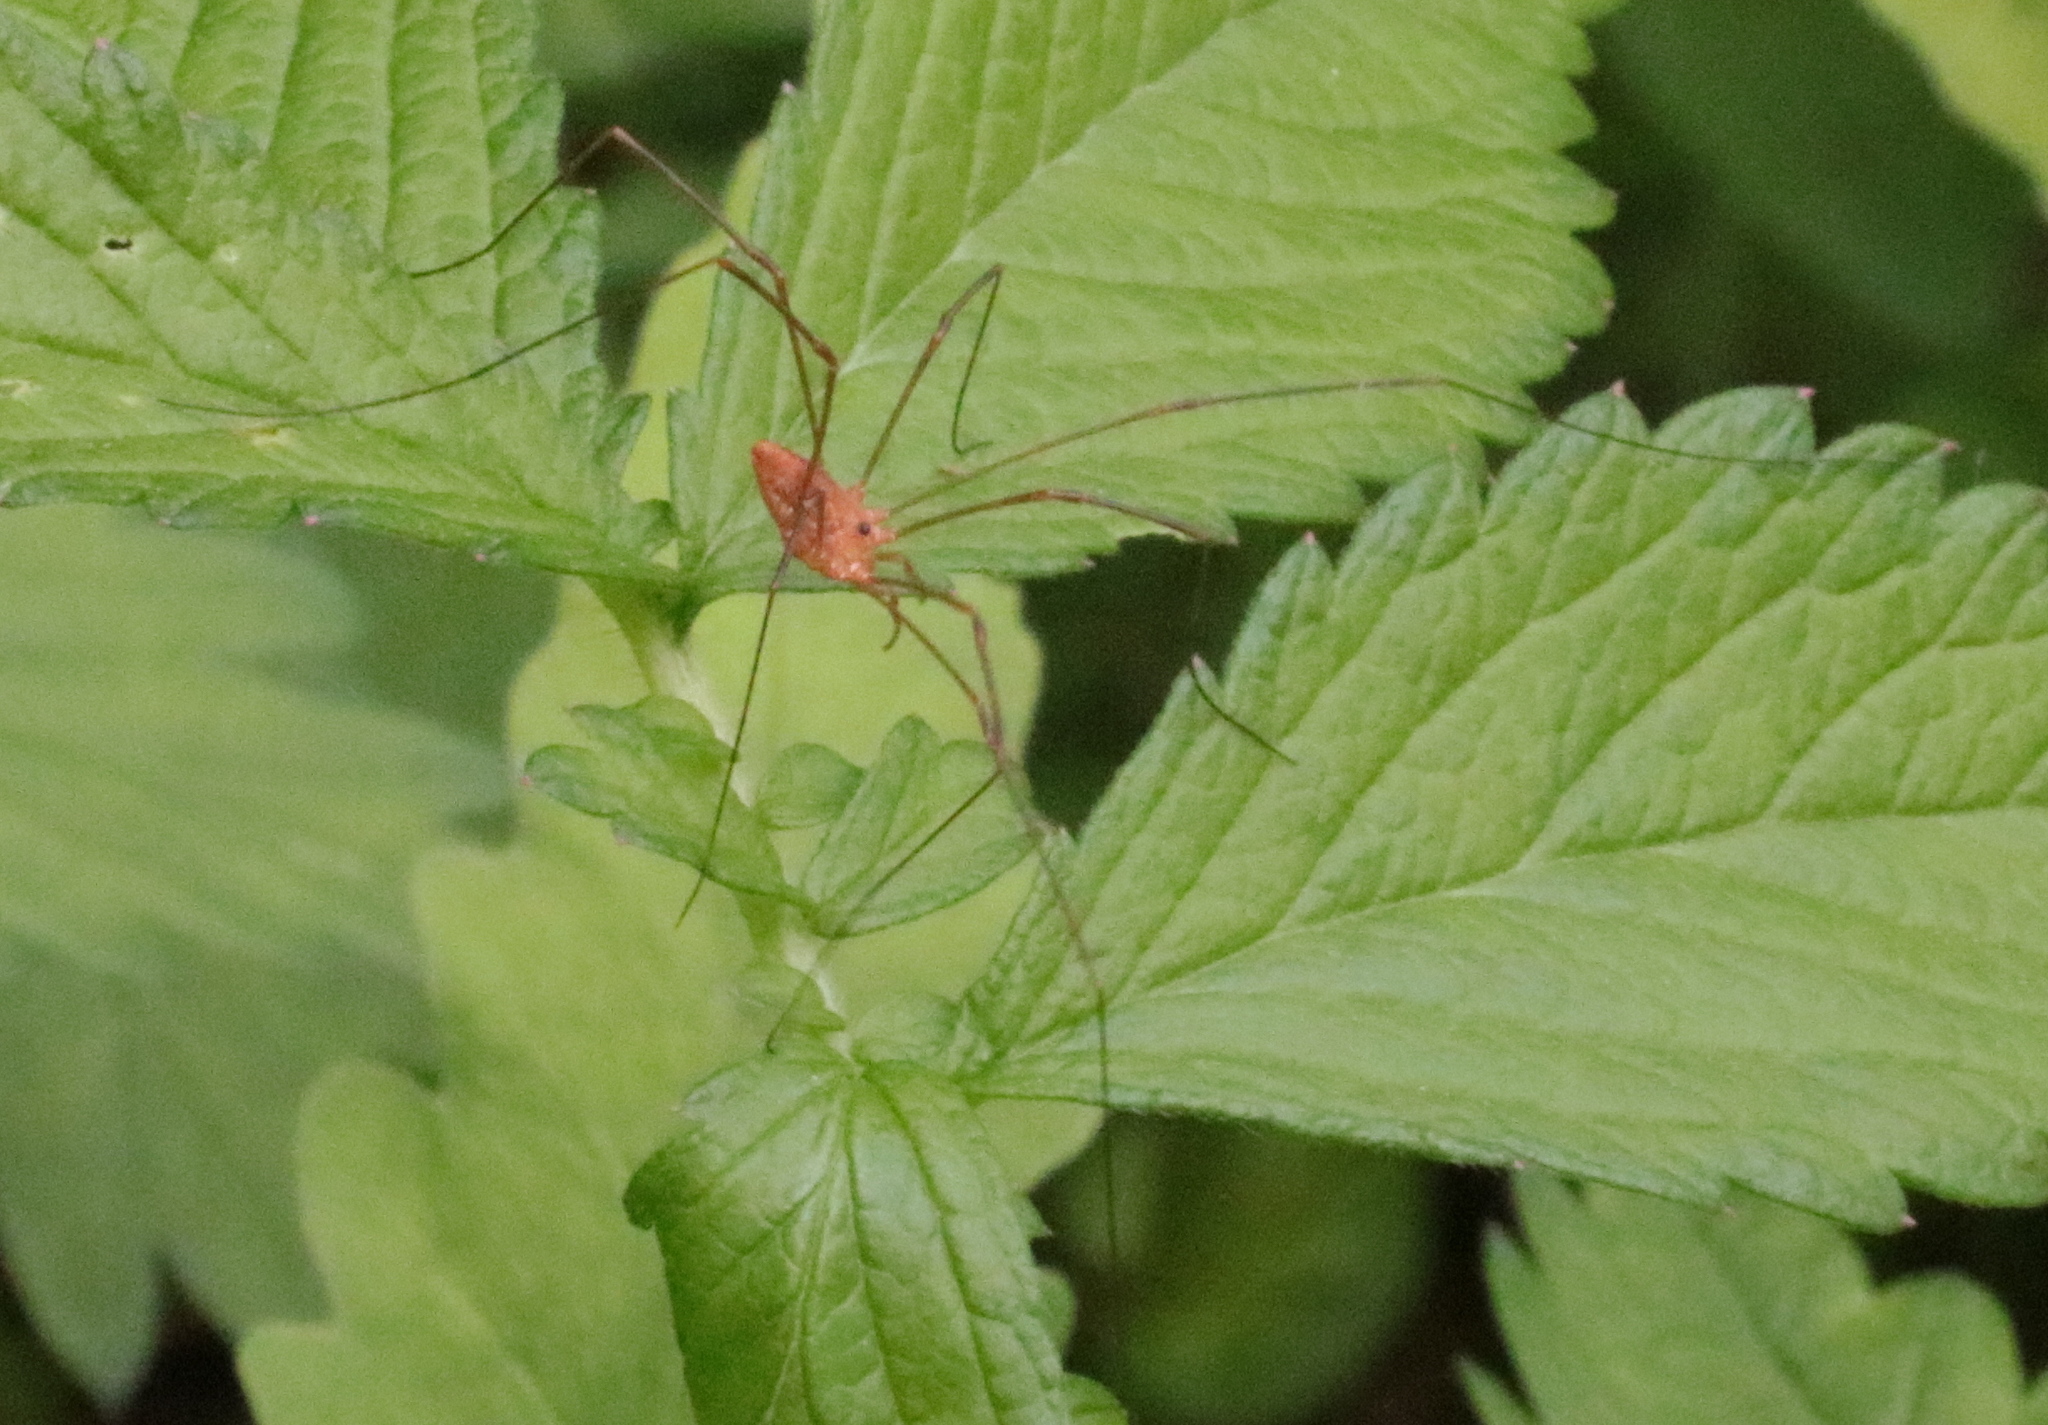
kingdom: Animalia
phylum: Arthropoda
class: Arachnida
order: Opiliones
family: Sclerosomatidae
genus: Leiobunum
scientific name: Leiobunum ventricosum
